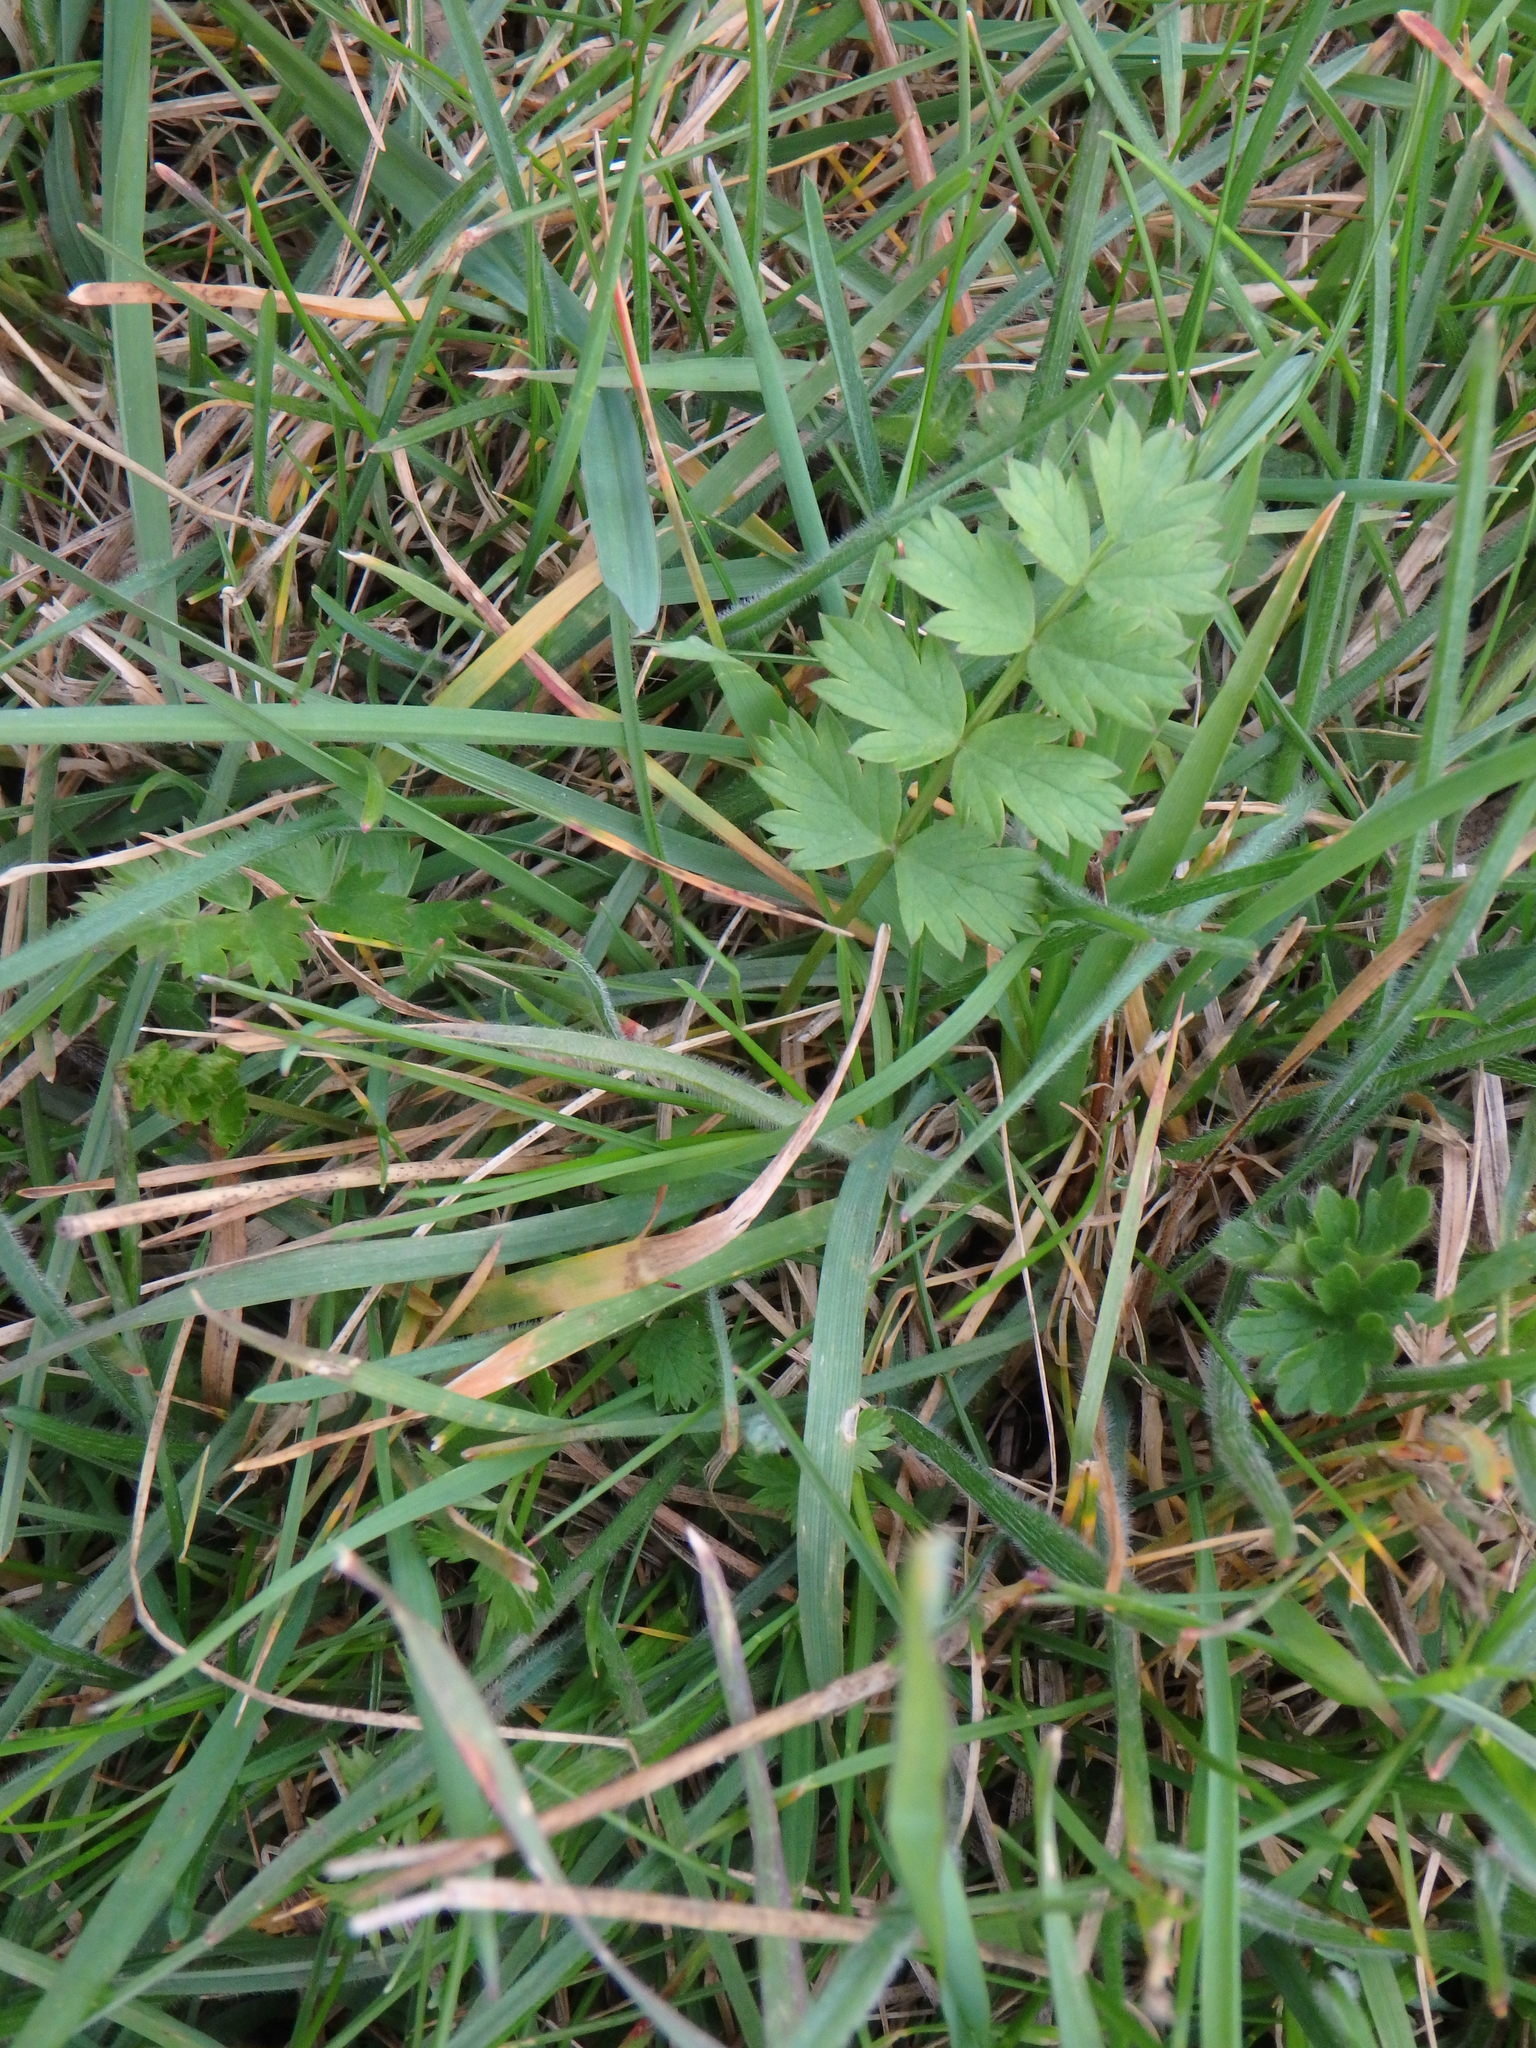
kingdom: Plantae
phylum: Tracheophyta
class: Magnoliopsida
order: Apiales
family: Apiaceae
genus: Pimpinella
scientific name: Pimpinella saxifraga
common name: Burnet-saxifrage
